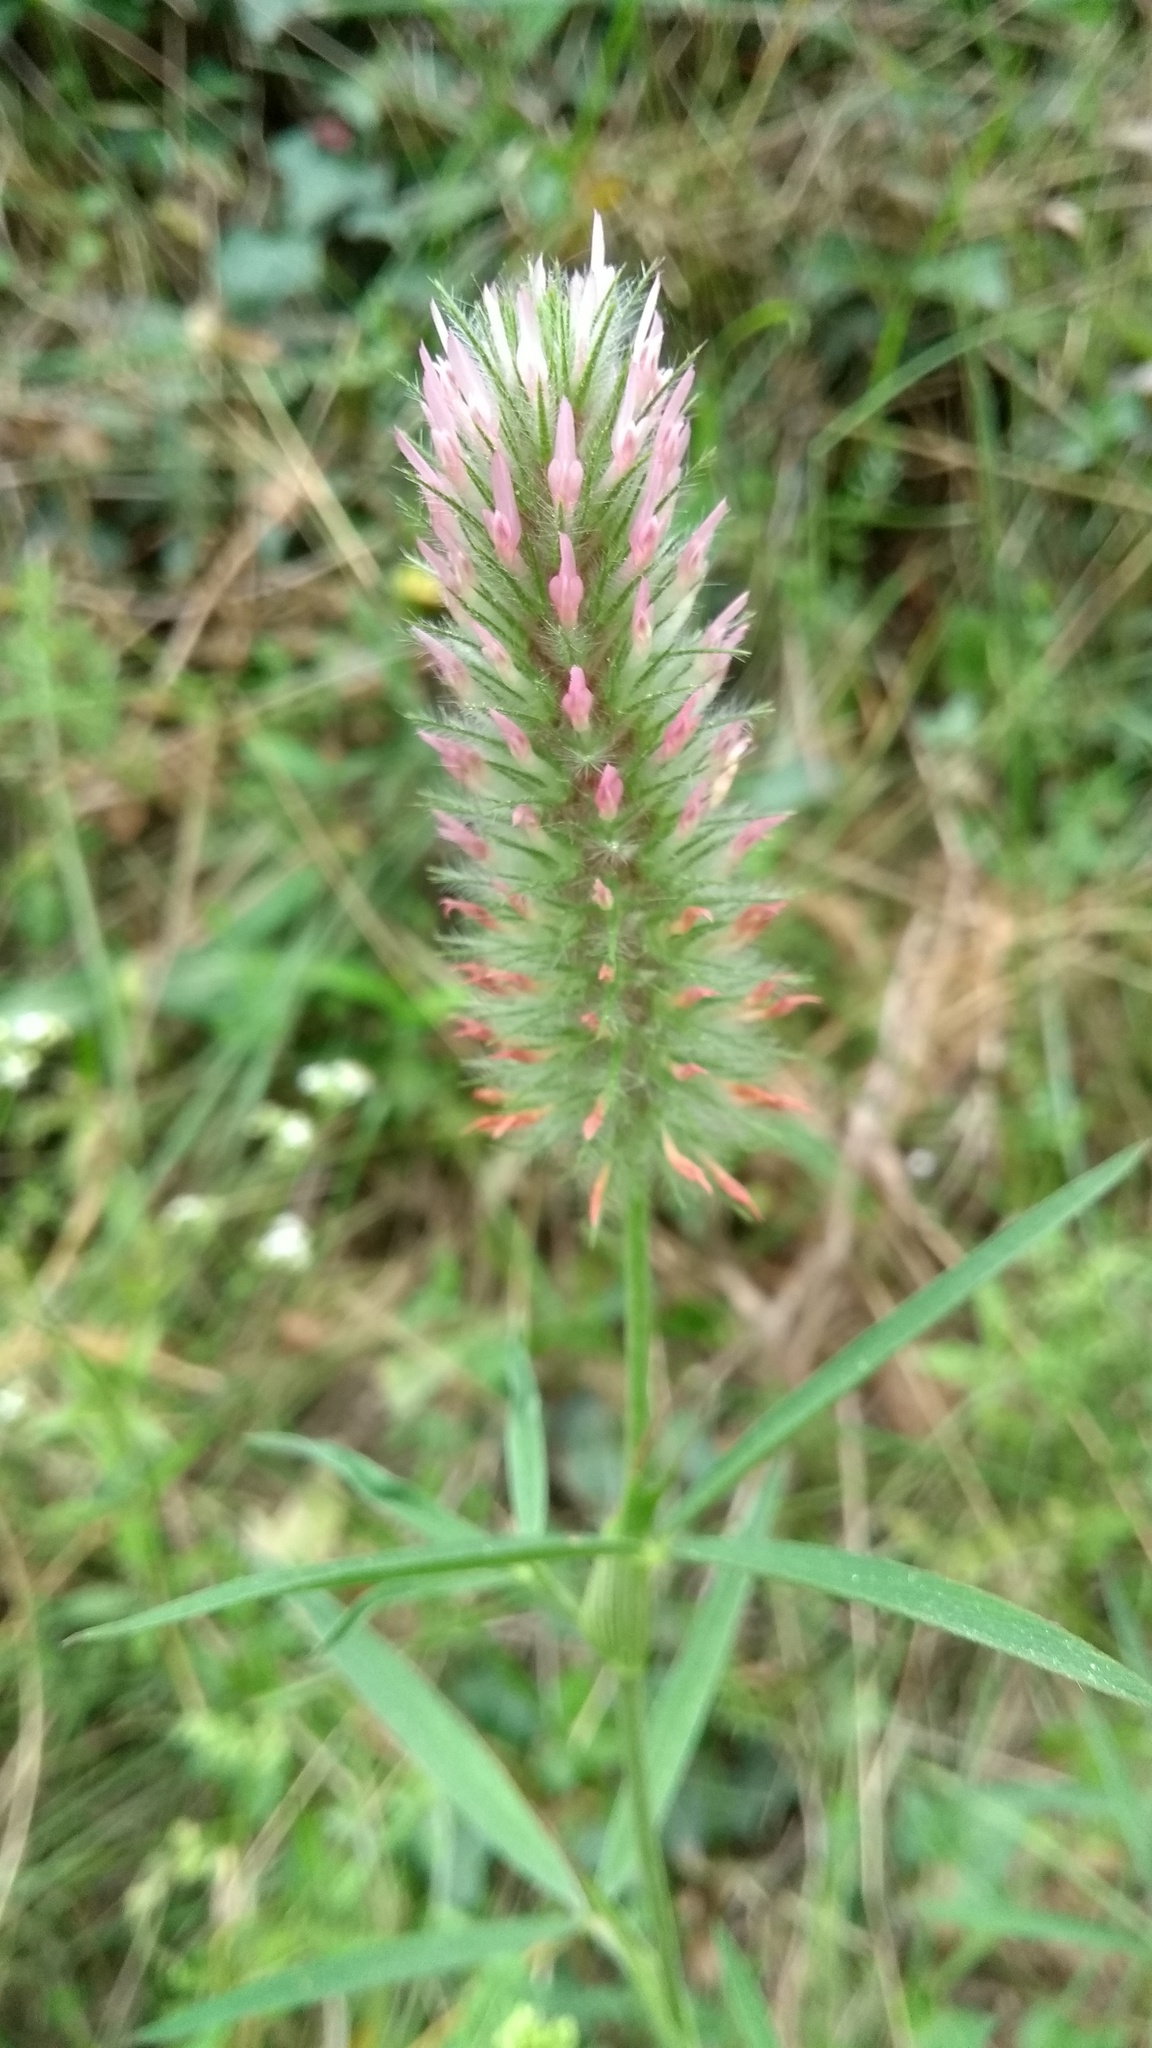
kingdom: Plantae
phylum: Tracheophyta
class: Magnoliopsida
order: Fabales
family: Fabaceae
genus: Trifolium
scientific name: Trifolium angustifolium
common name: Narrow clover
